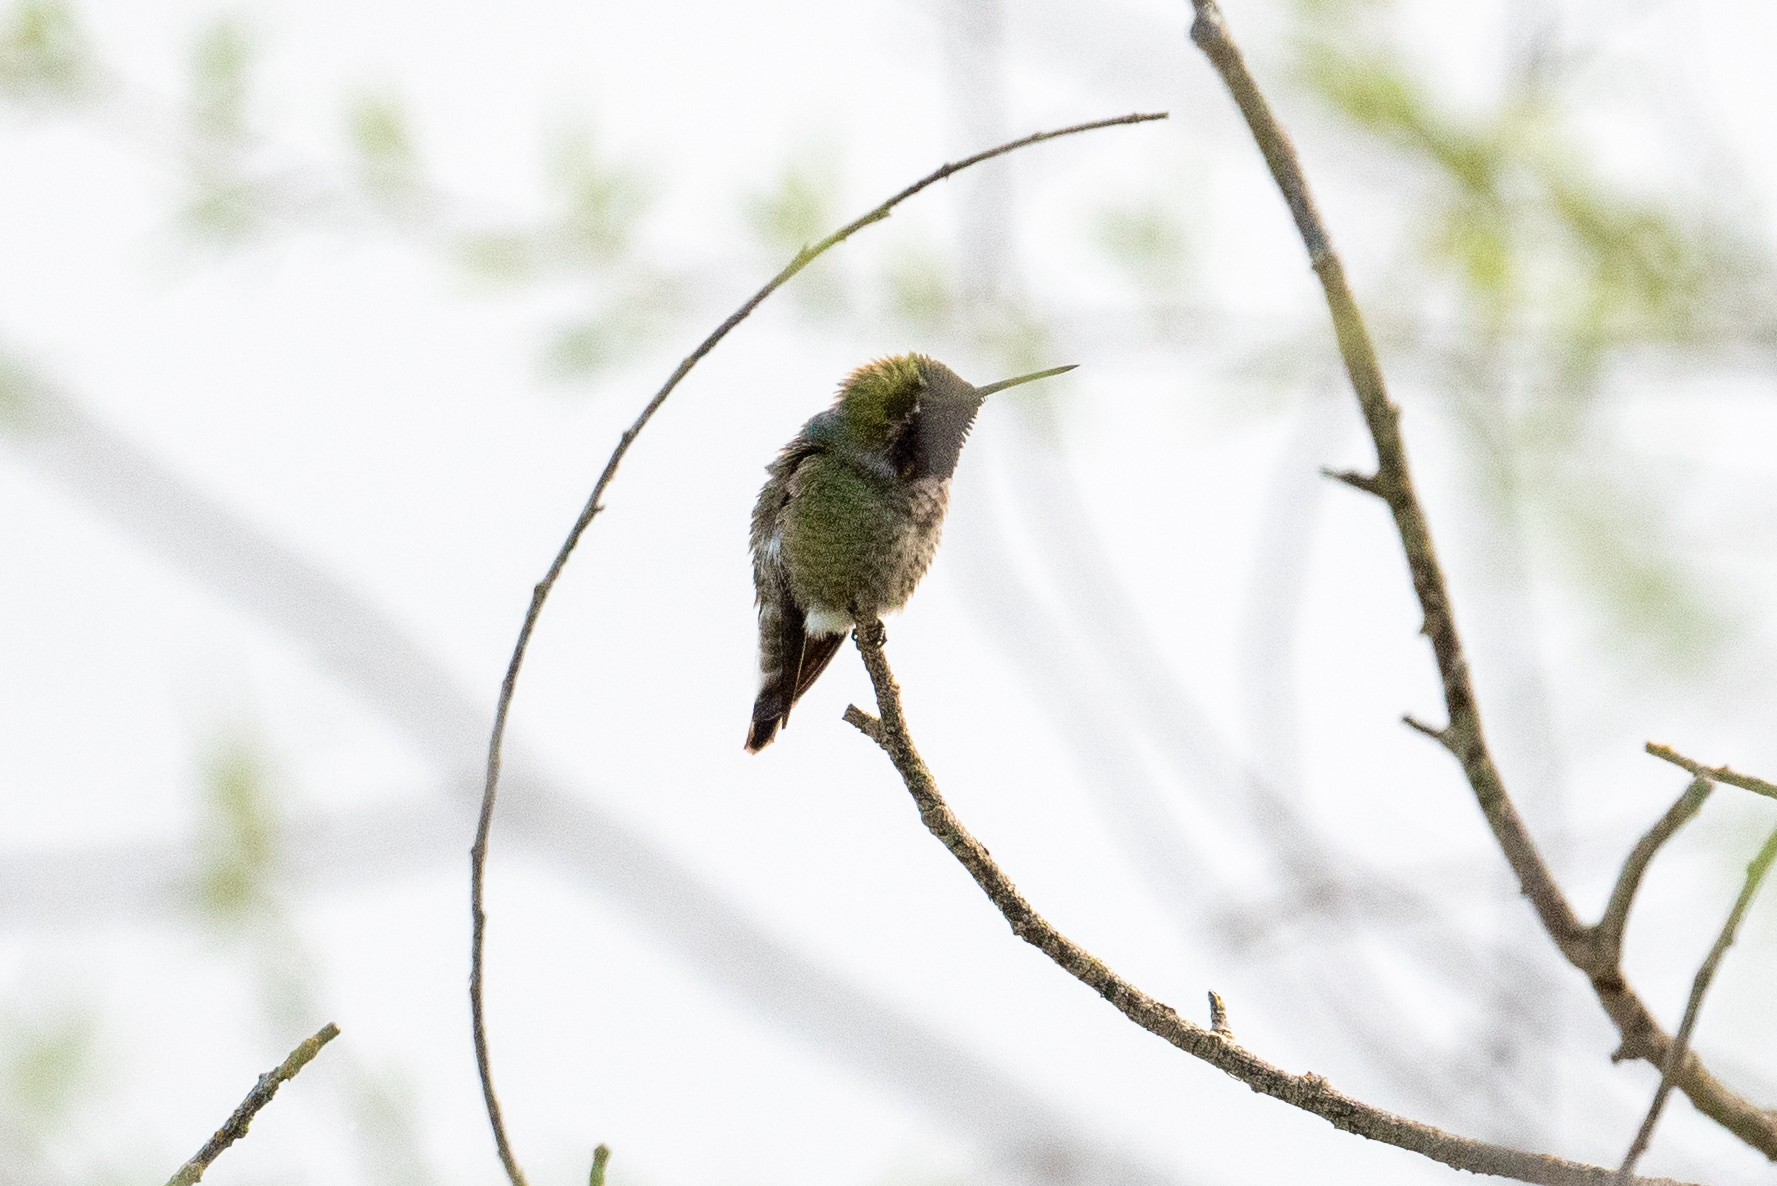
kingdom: Animalia
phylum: Chordata
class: Aves
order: Apodiformes
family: Trochilidae
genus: Calypte
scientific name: Calypte anna
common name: Anna's hummingbird
